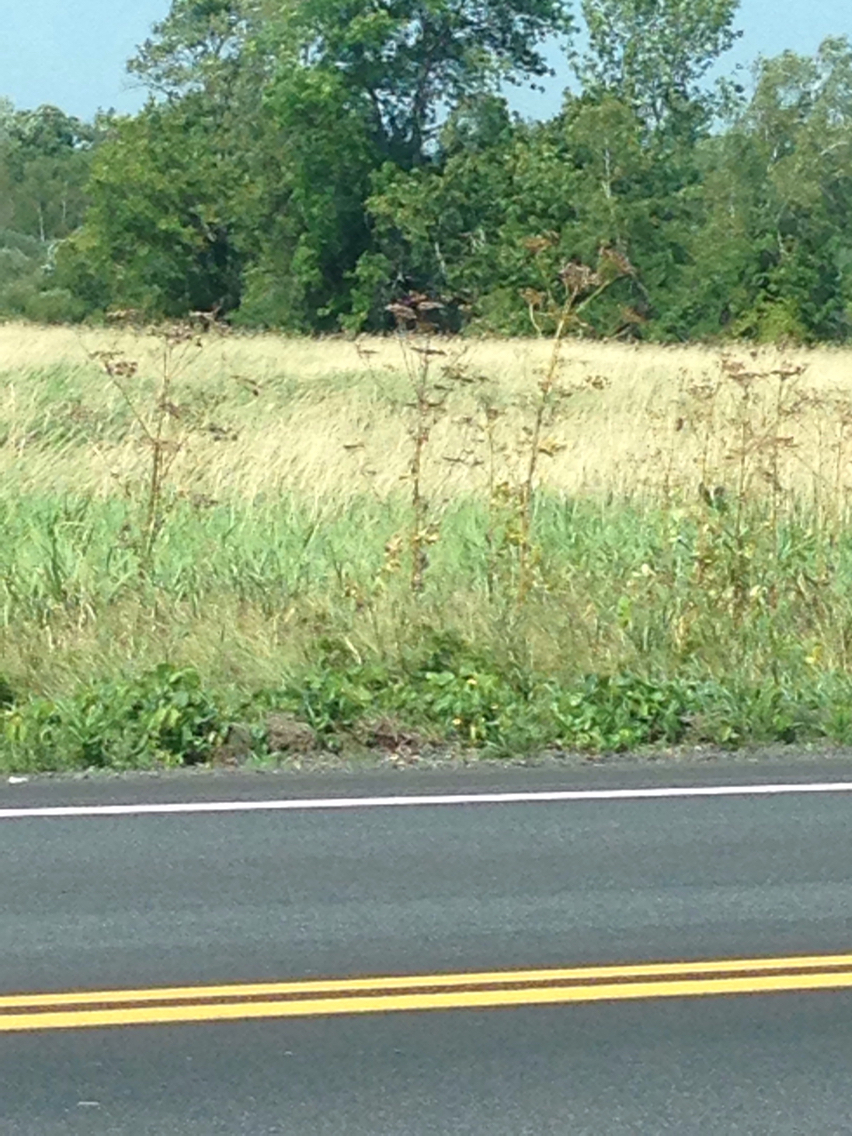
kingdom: Plantae
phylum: Tracheophyta
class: Magnoliopsida
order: Apiales
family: Apiaceae
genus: Pastinaca
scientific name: Pastinaca sativa
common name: Wild parsnip
